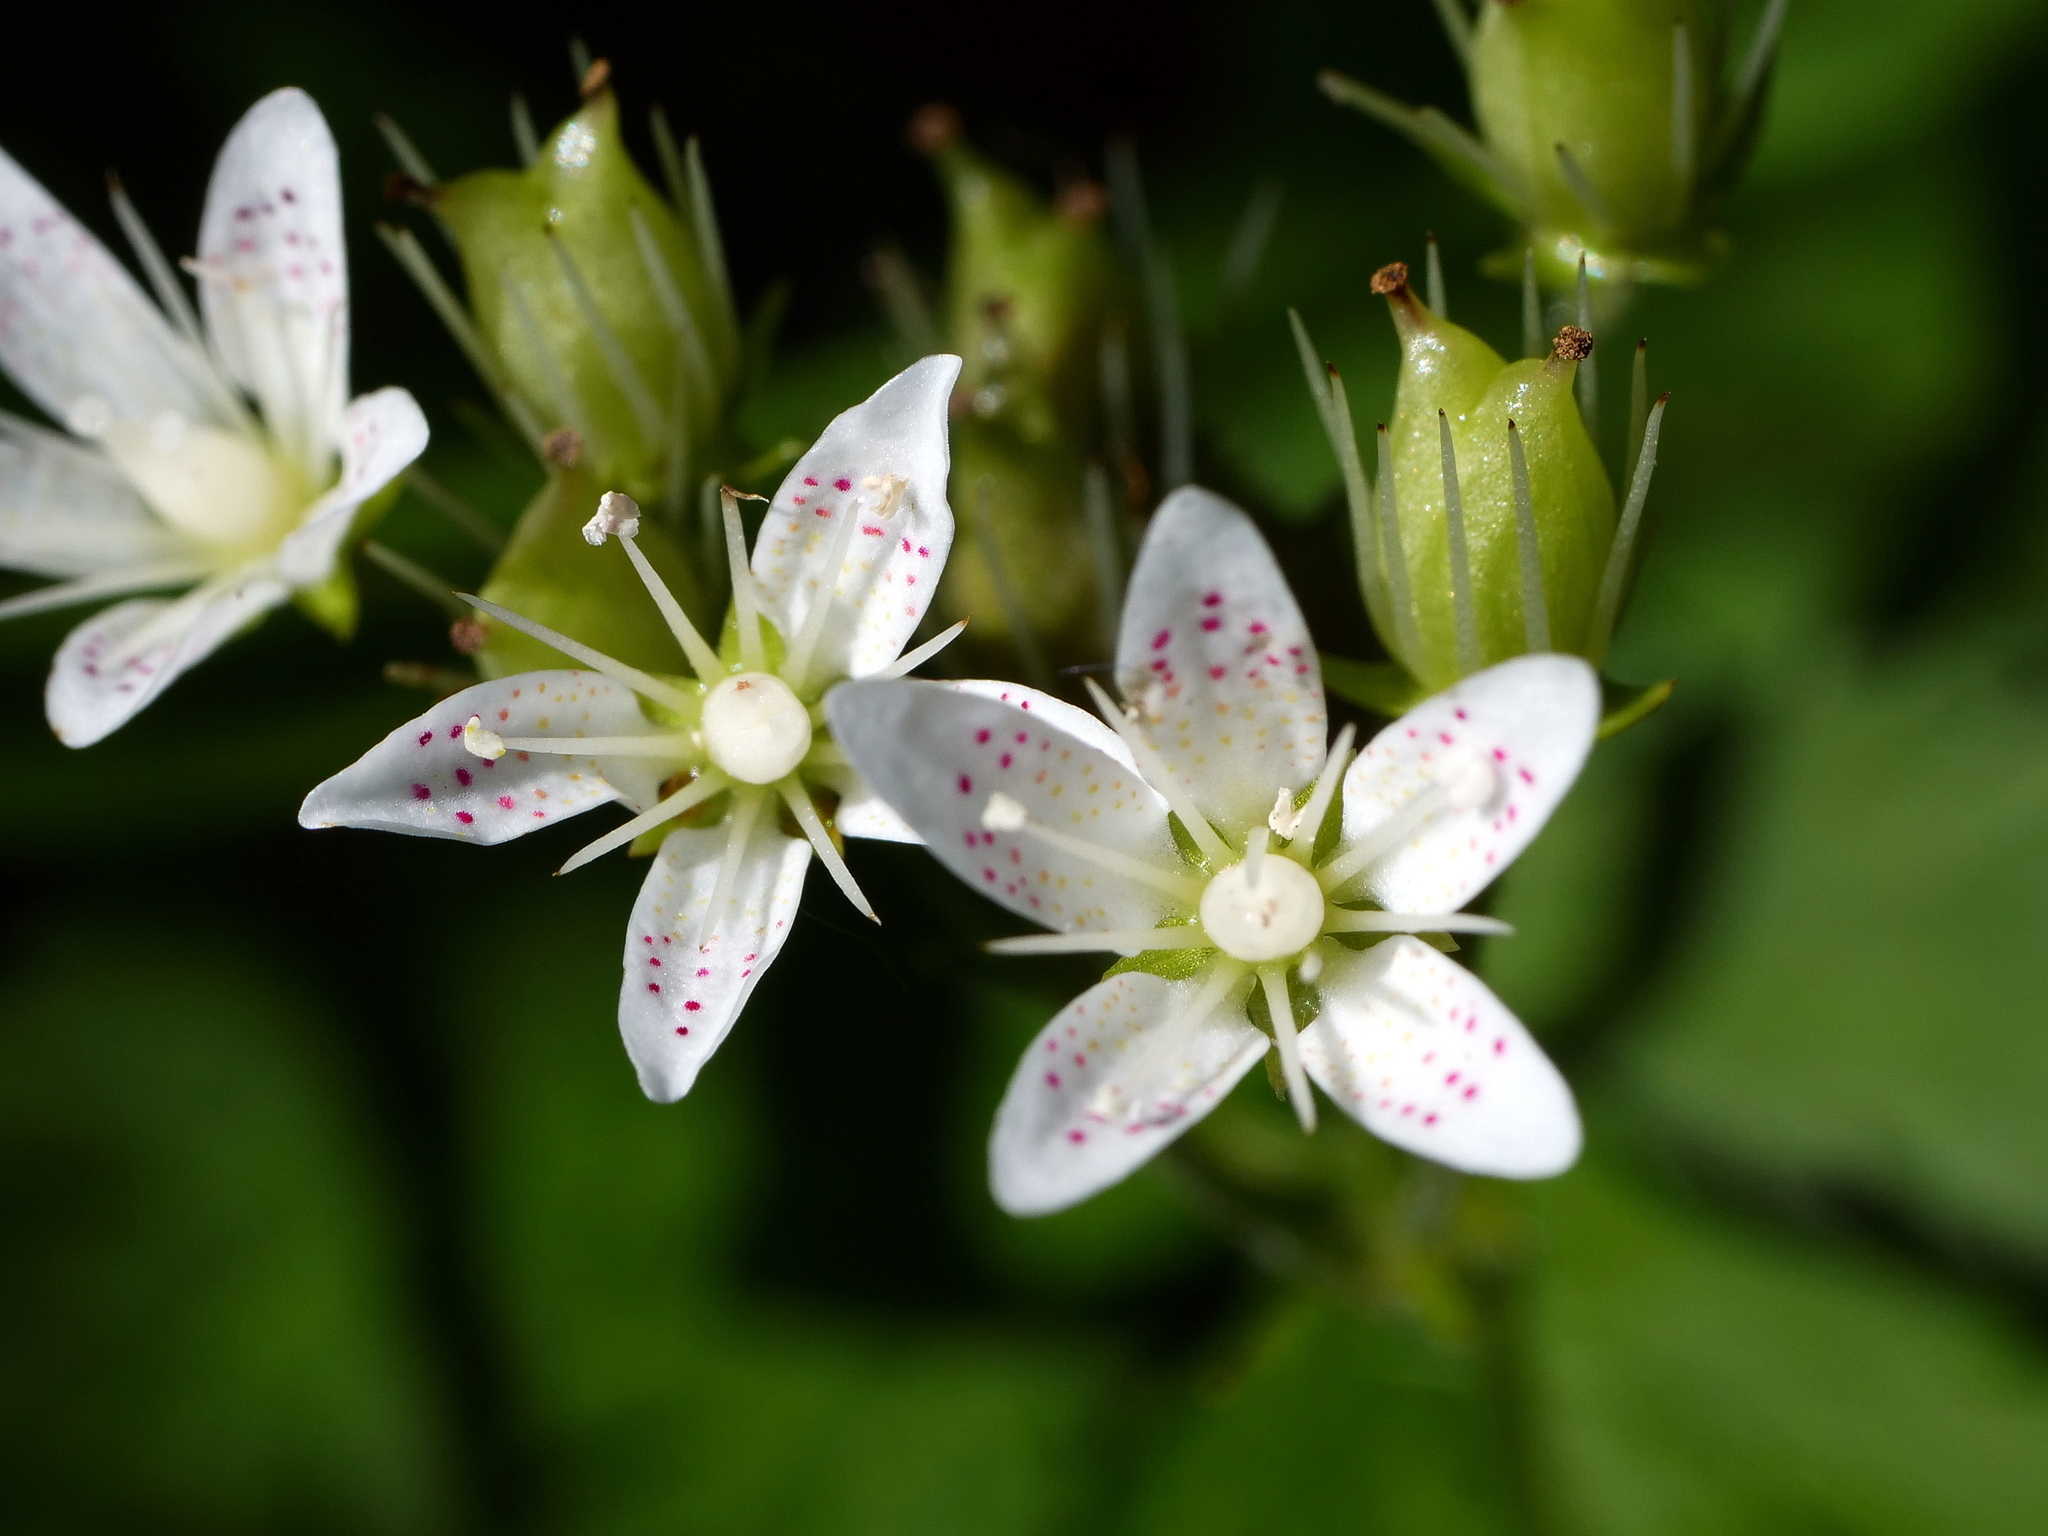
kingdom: Plantae
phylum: Tracheophyta
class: Magnoliopsida
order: Saxifragales
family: Saxifragaceae
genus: Saxifraga
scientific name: Saxifraga rotundifolia
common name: Round-leaved saxifrage
